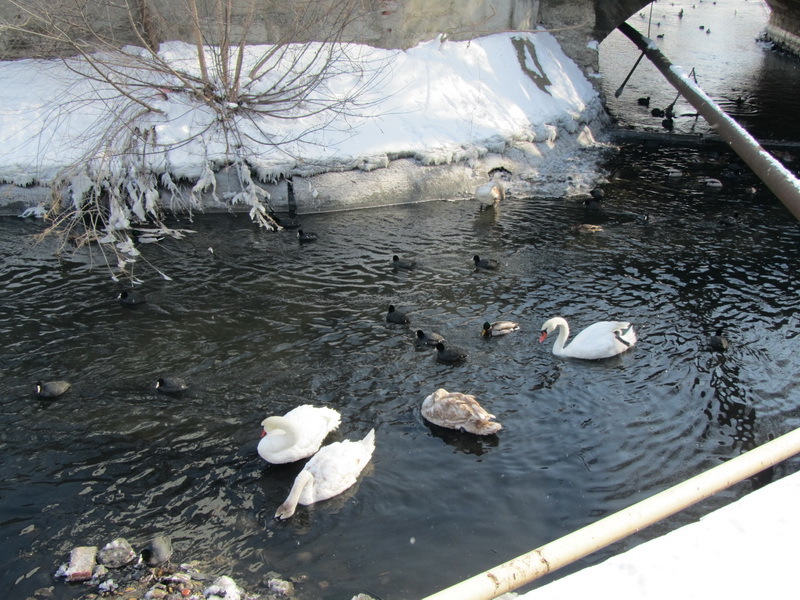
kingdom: Animalia
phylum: Chordata
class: Aves
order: Anseriformes
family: Anatidae
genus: Cygnus
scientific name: Cygnus olor
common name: Mute swan
